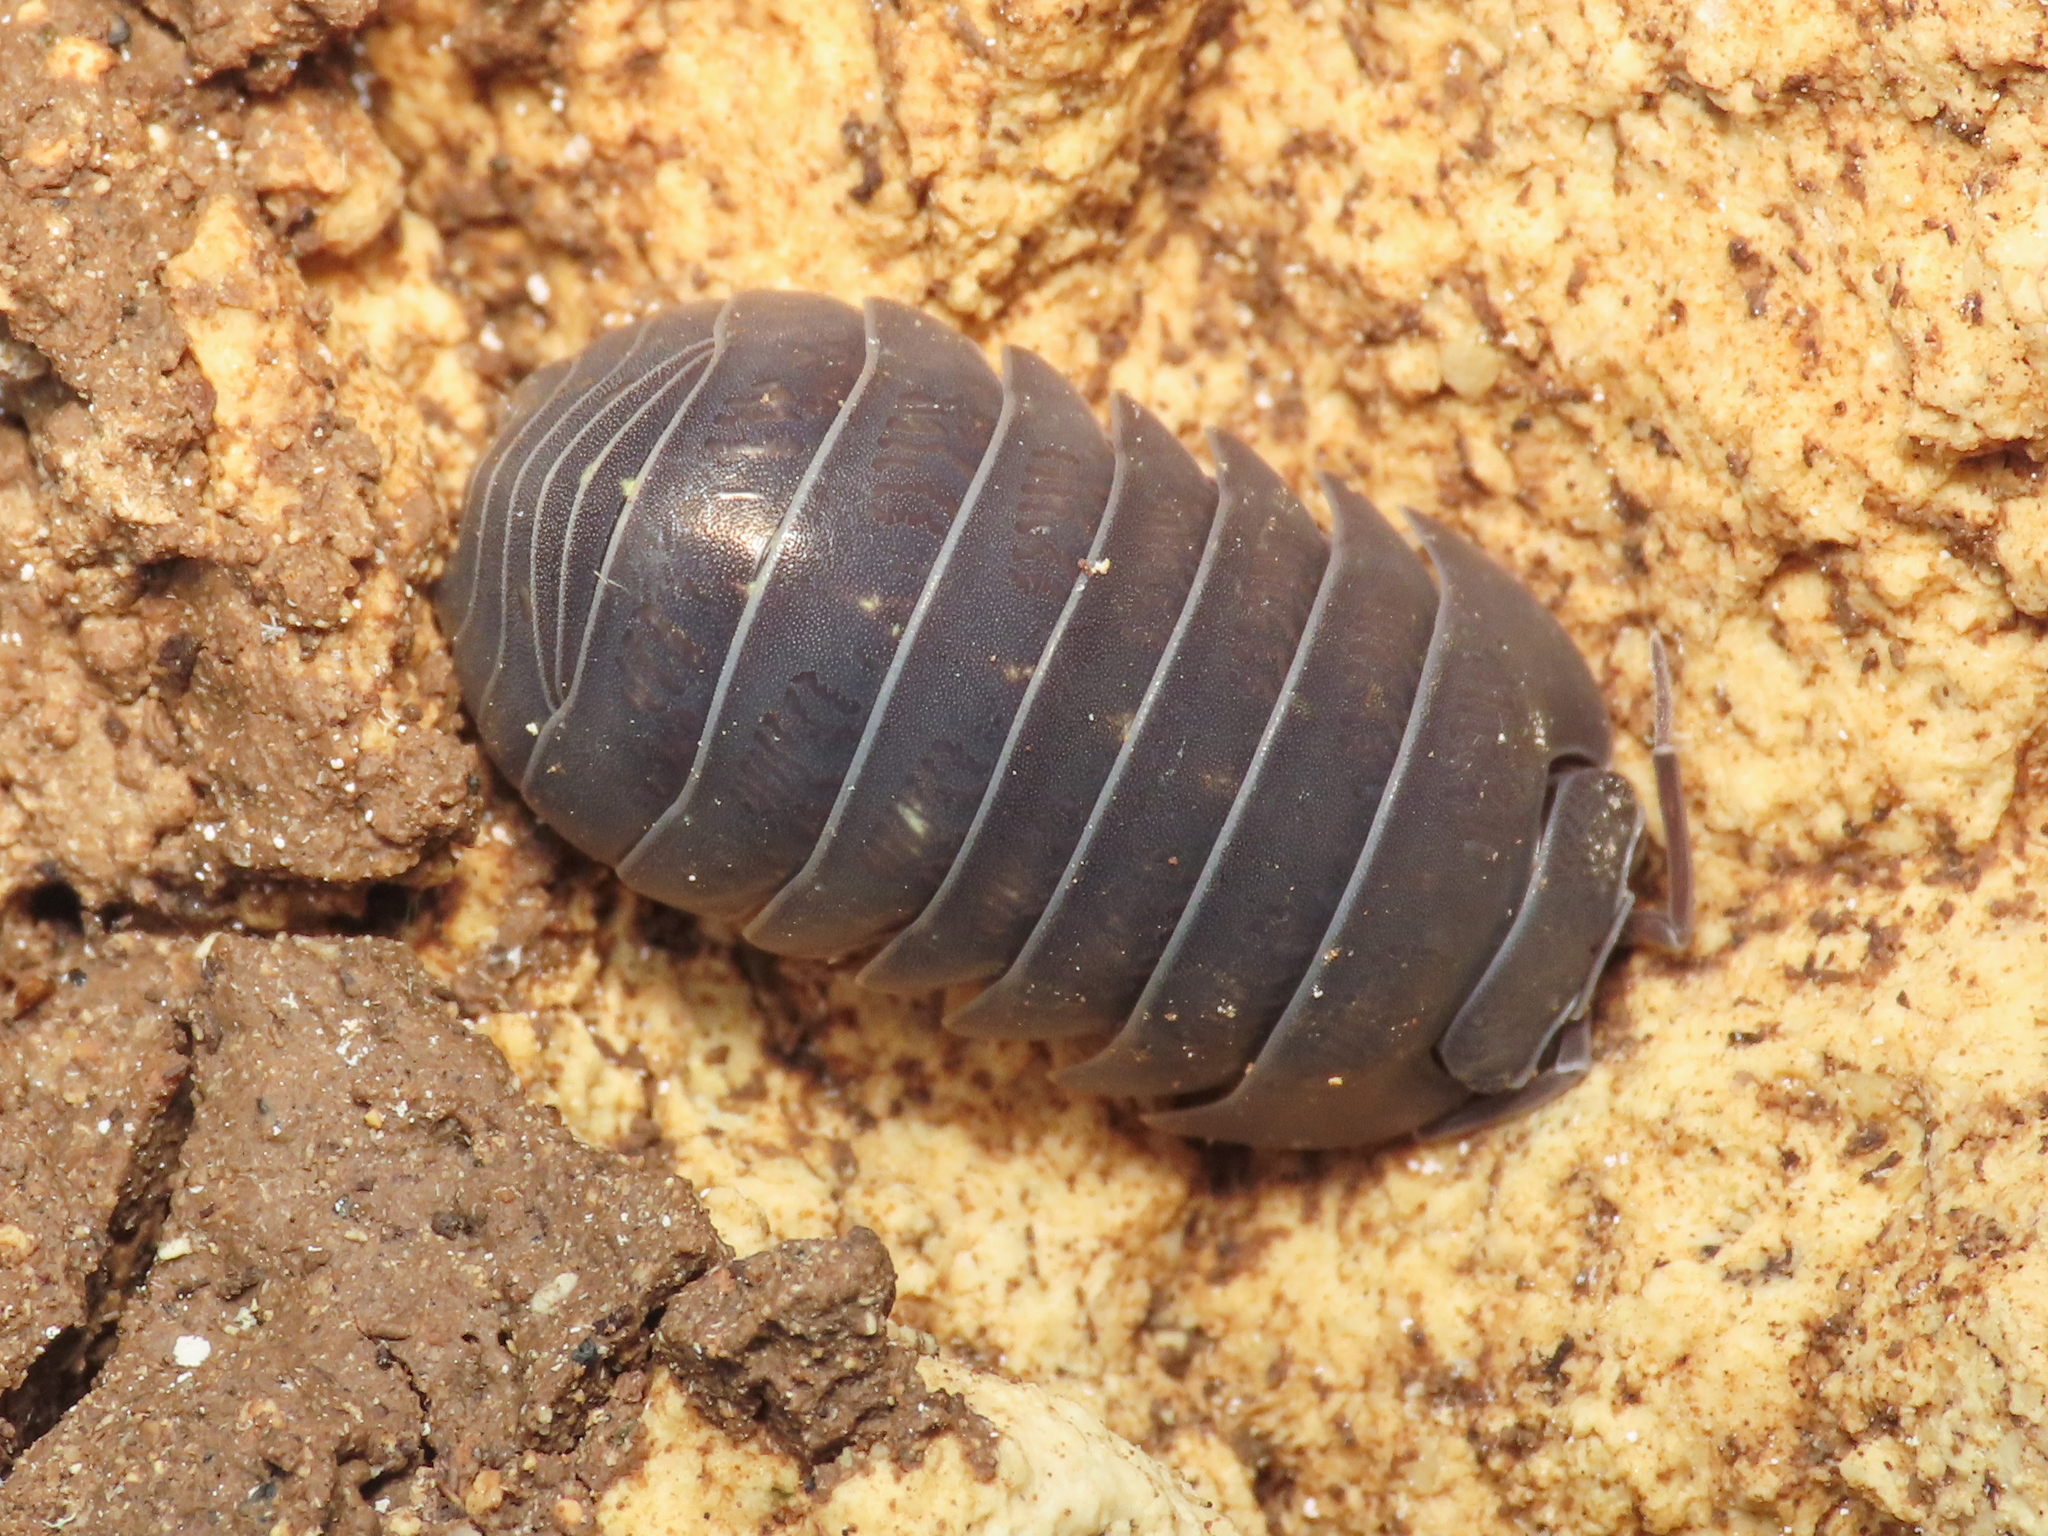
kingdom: Animalia
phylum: Arthropoda
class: Malacostraca
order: Isopoda
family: Armadillidiidae
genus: Armadillidium
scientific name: Armadillidium furcatum
